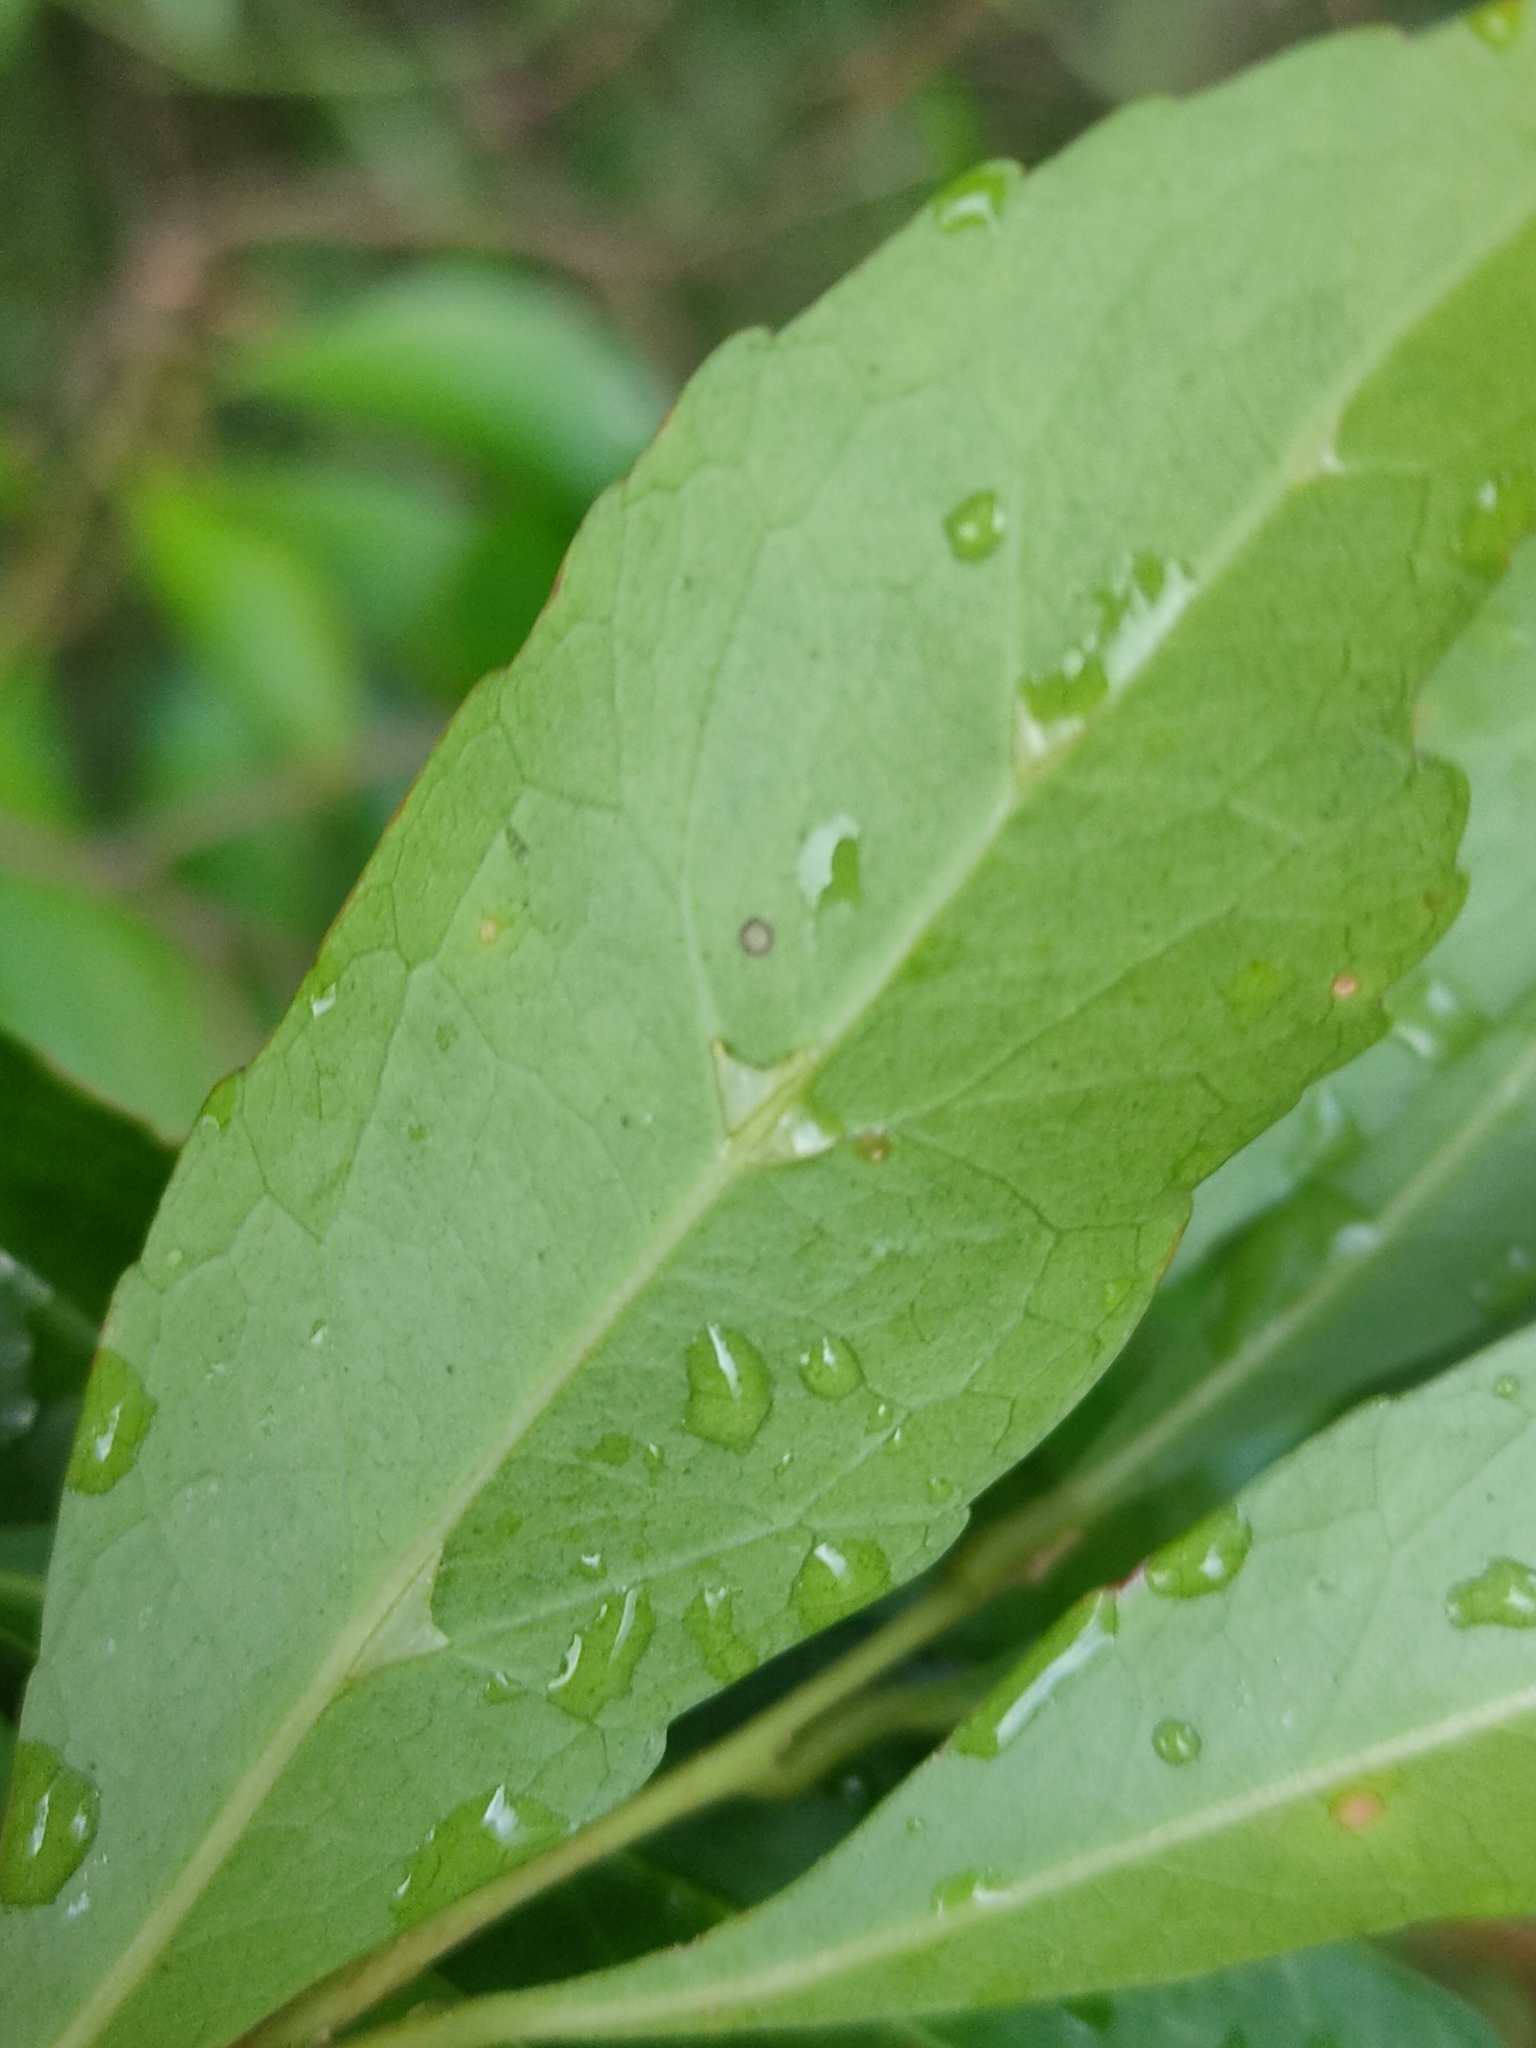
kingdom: Plantae
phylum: Tracheophyta
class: Magnoliopsida
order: Oxalidales
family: Elaeocarpaceae
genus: Elaeocarpus
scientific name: Elaeocarpus obovatus
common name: Freckled oliveberry
